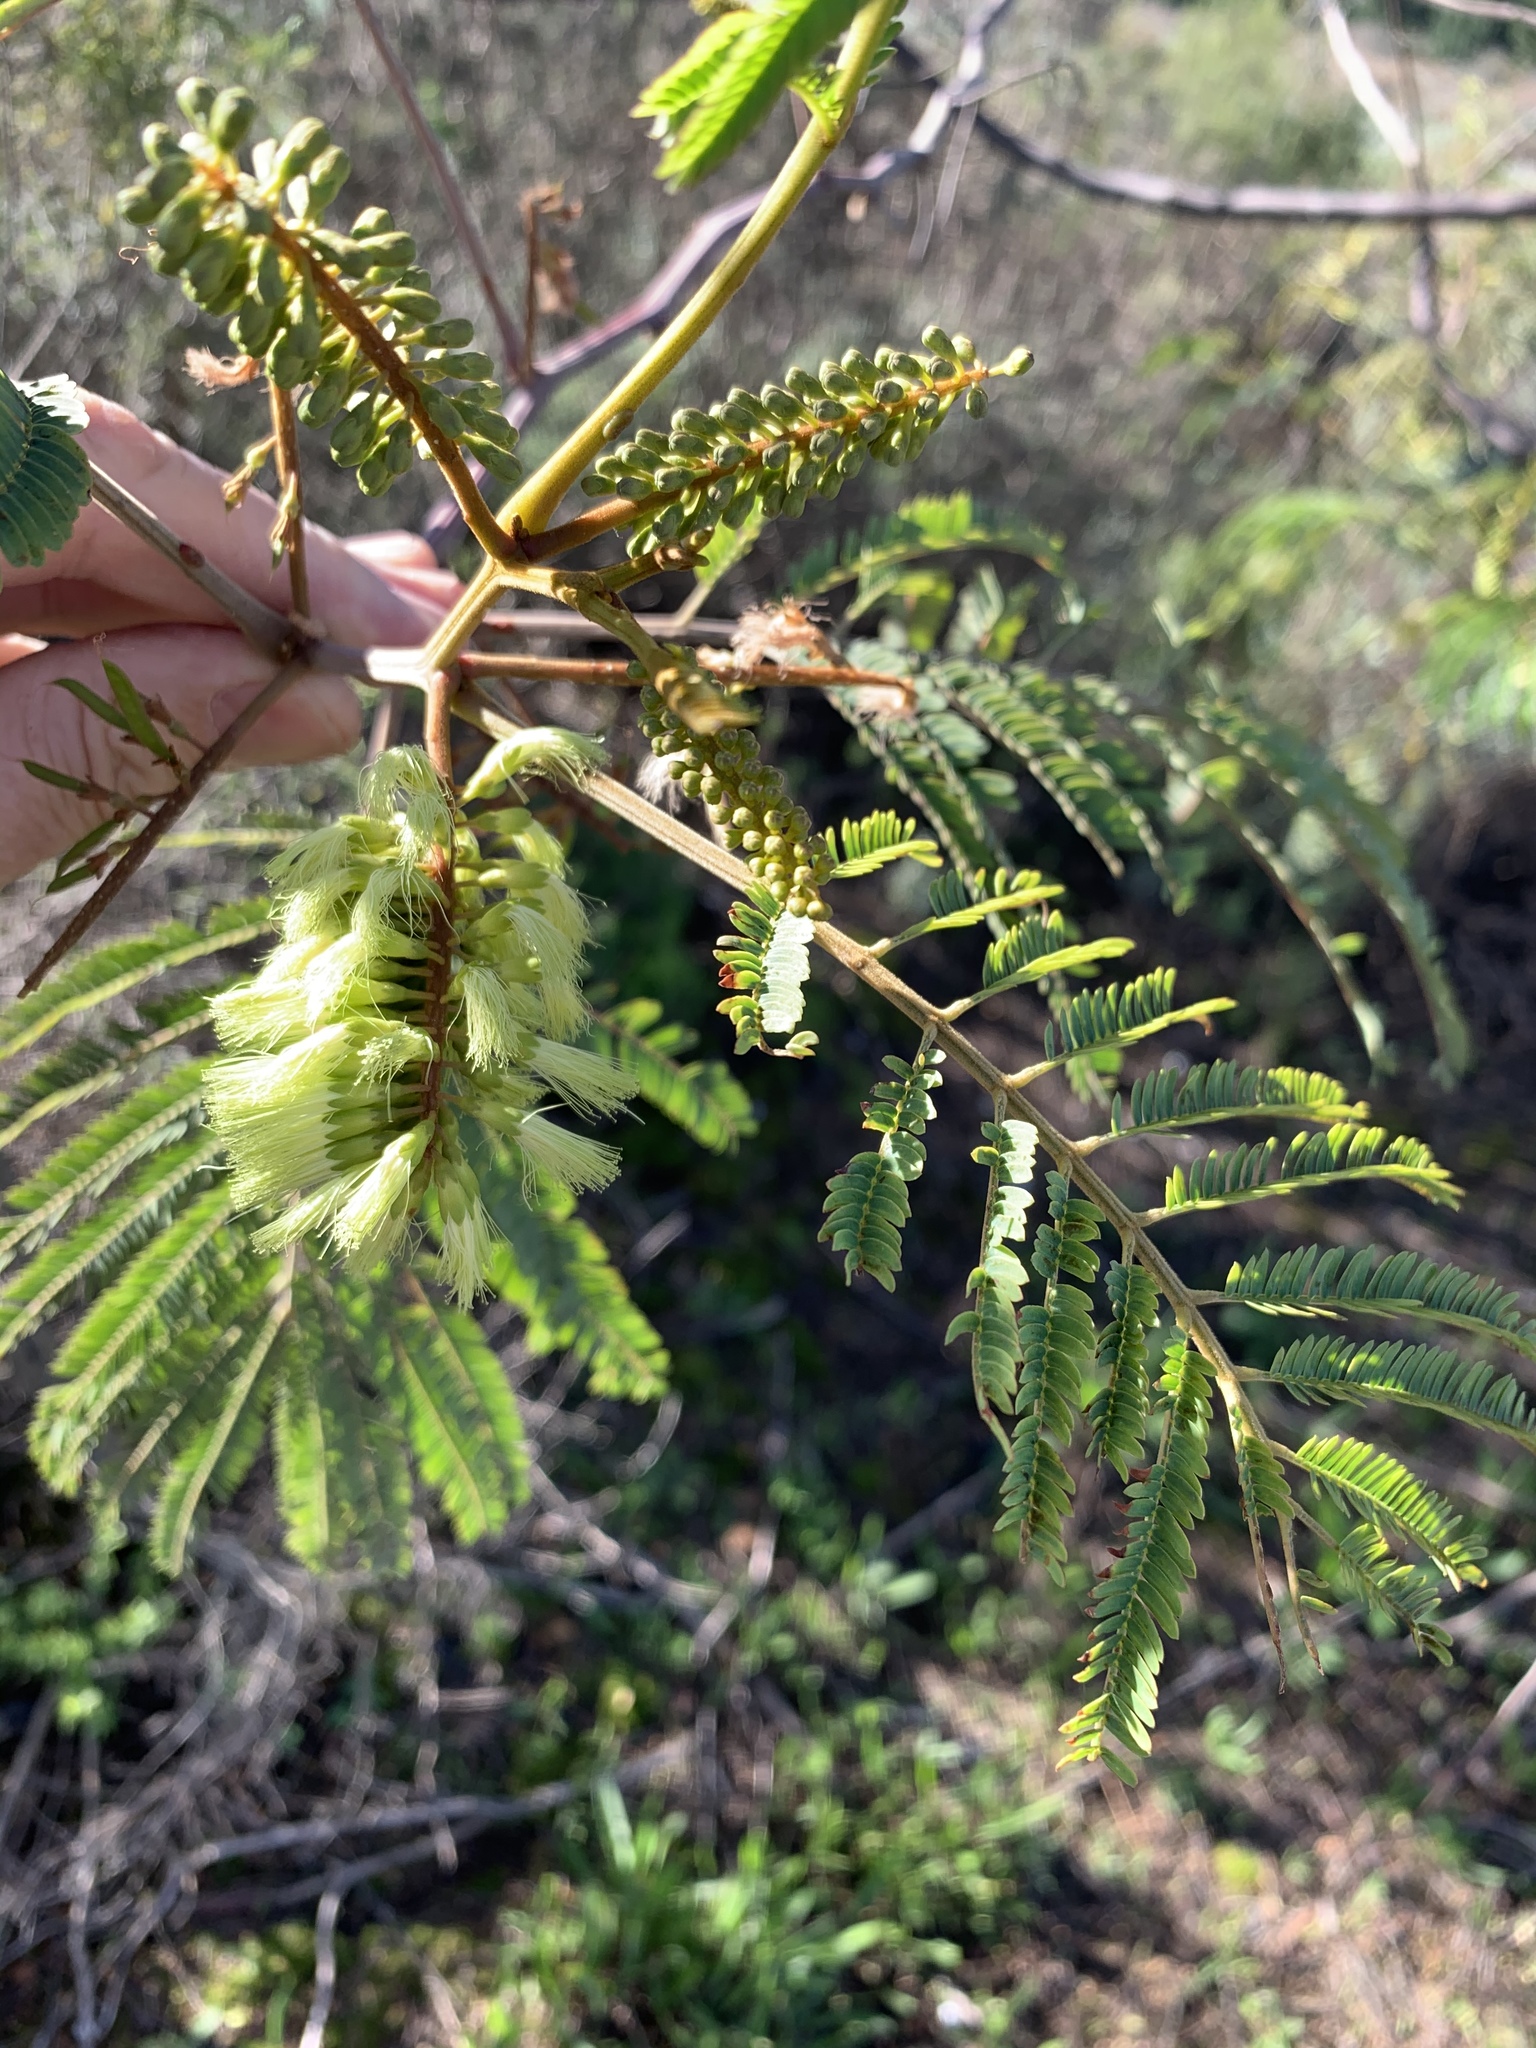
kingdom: Plantae
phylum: Tracheophyta
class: Magnoliopsida
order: Fabales
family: Fabaceae
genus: Paraserianthes
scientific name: Paraserianthes lophantha
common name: Plume albizia
